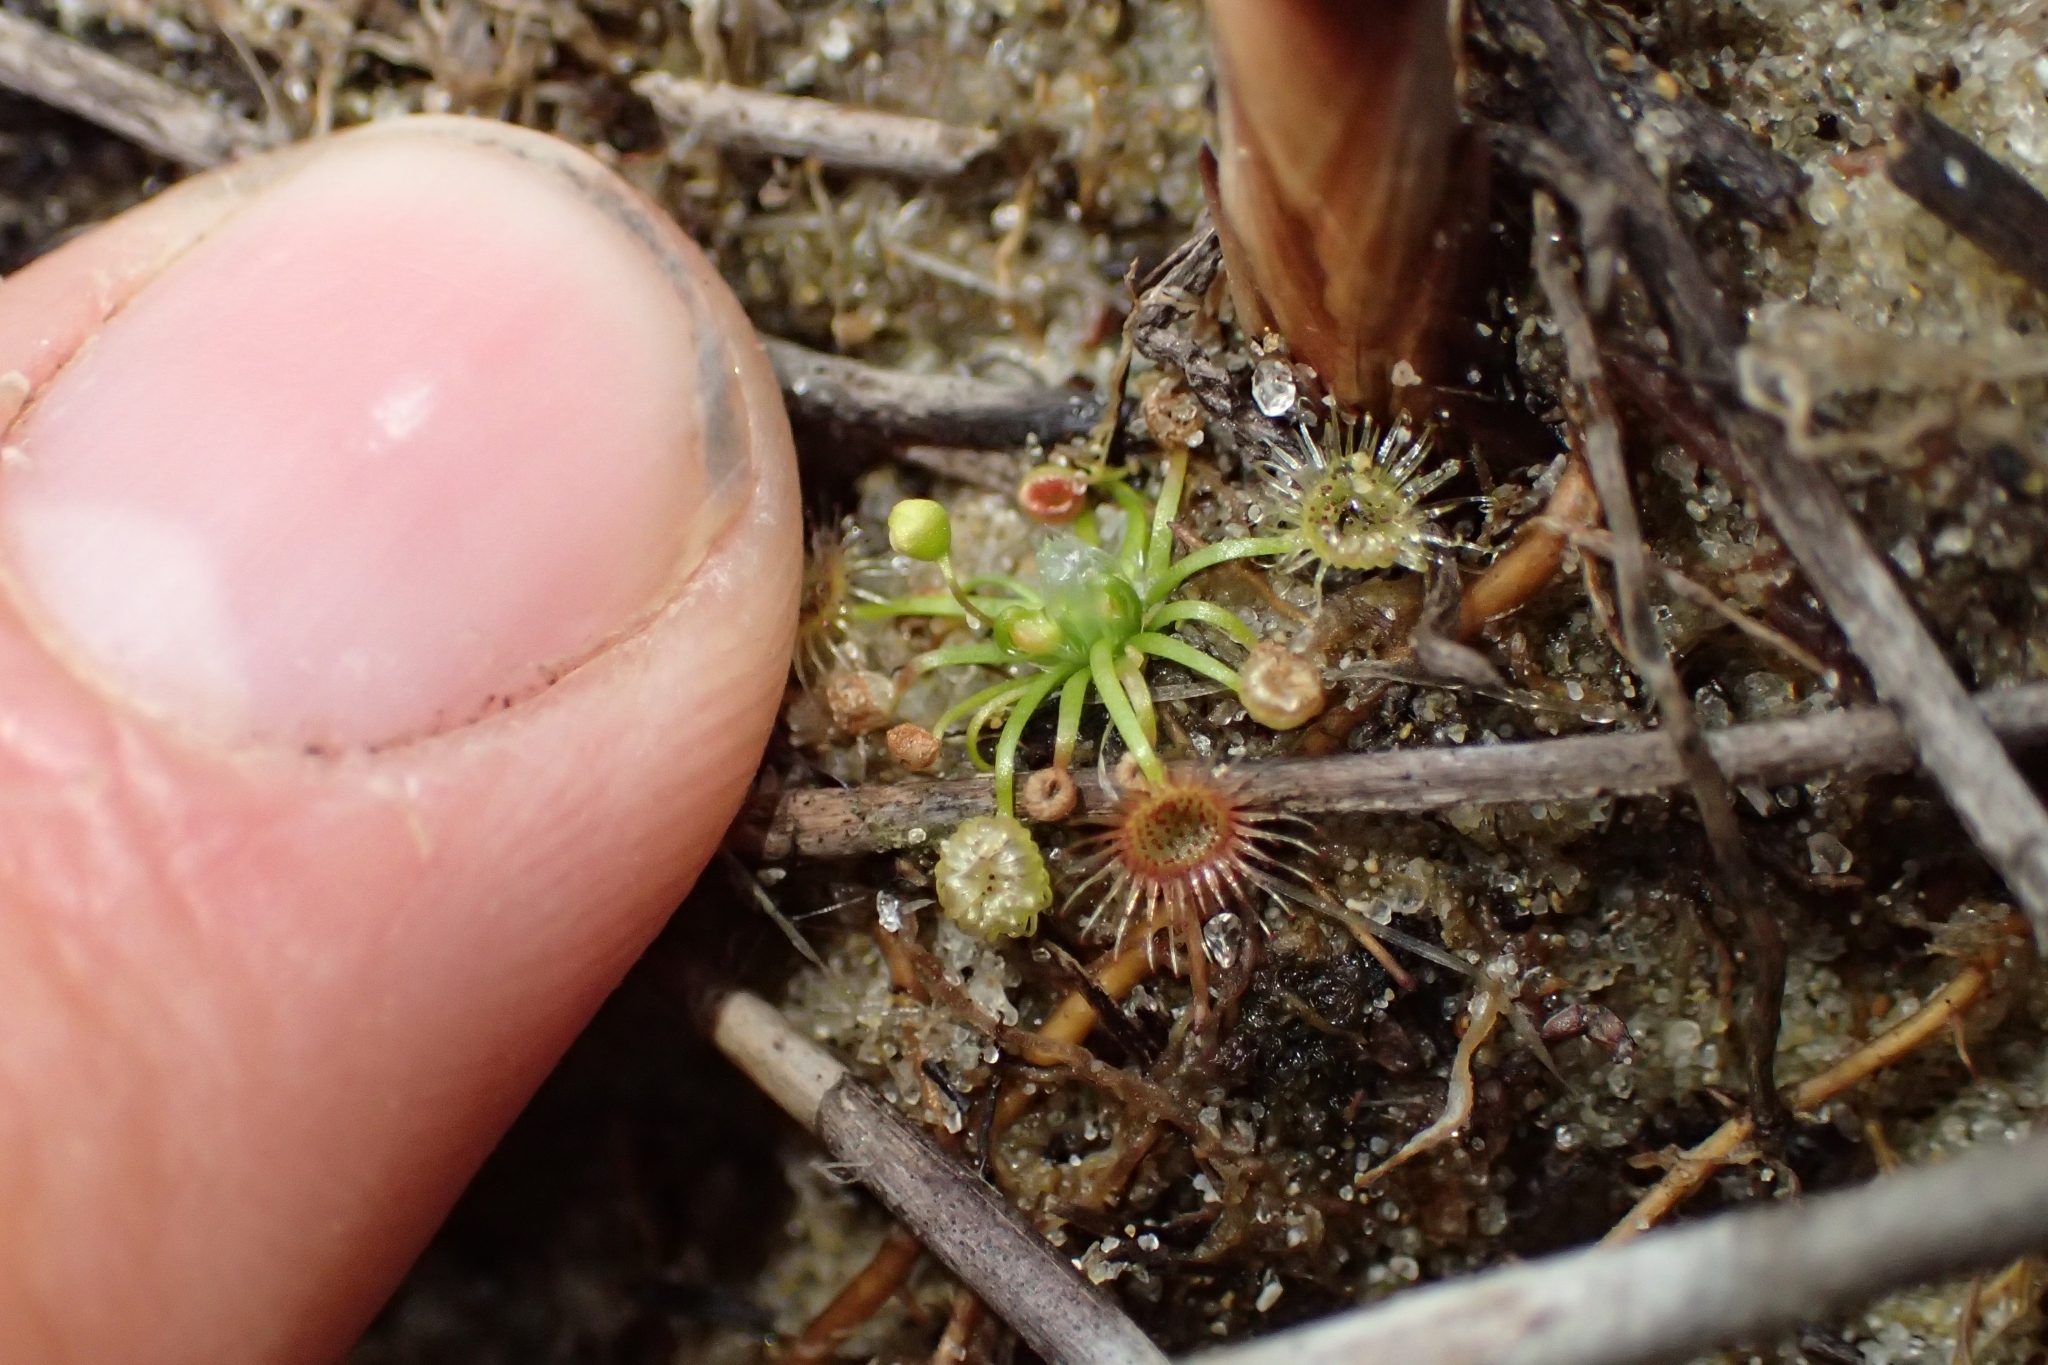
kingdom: Plantae
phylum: Tracheophyta
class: Magnoliopsida
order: Caryophyllales
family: Droseraceae
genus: Drosera
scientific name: Drosera pygmaea
